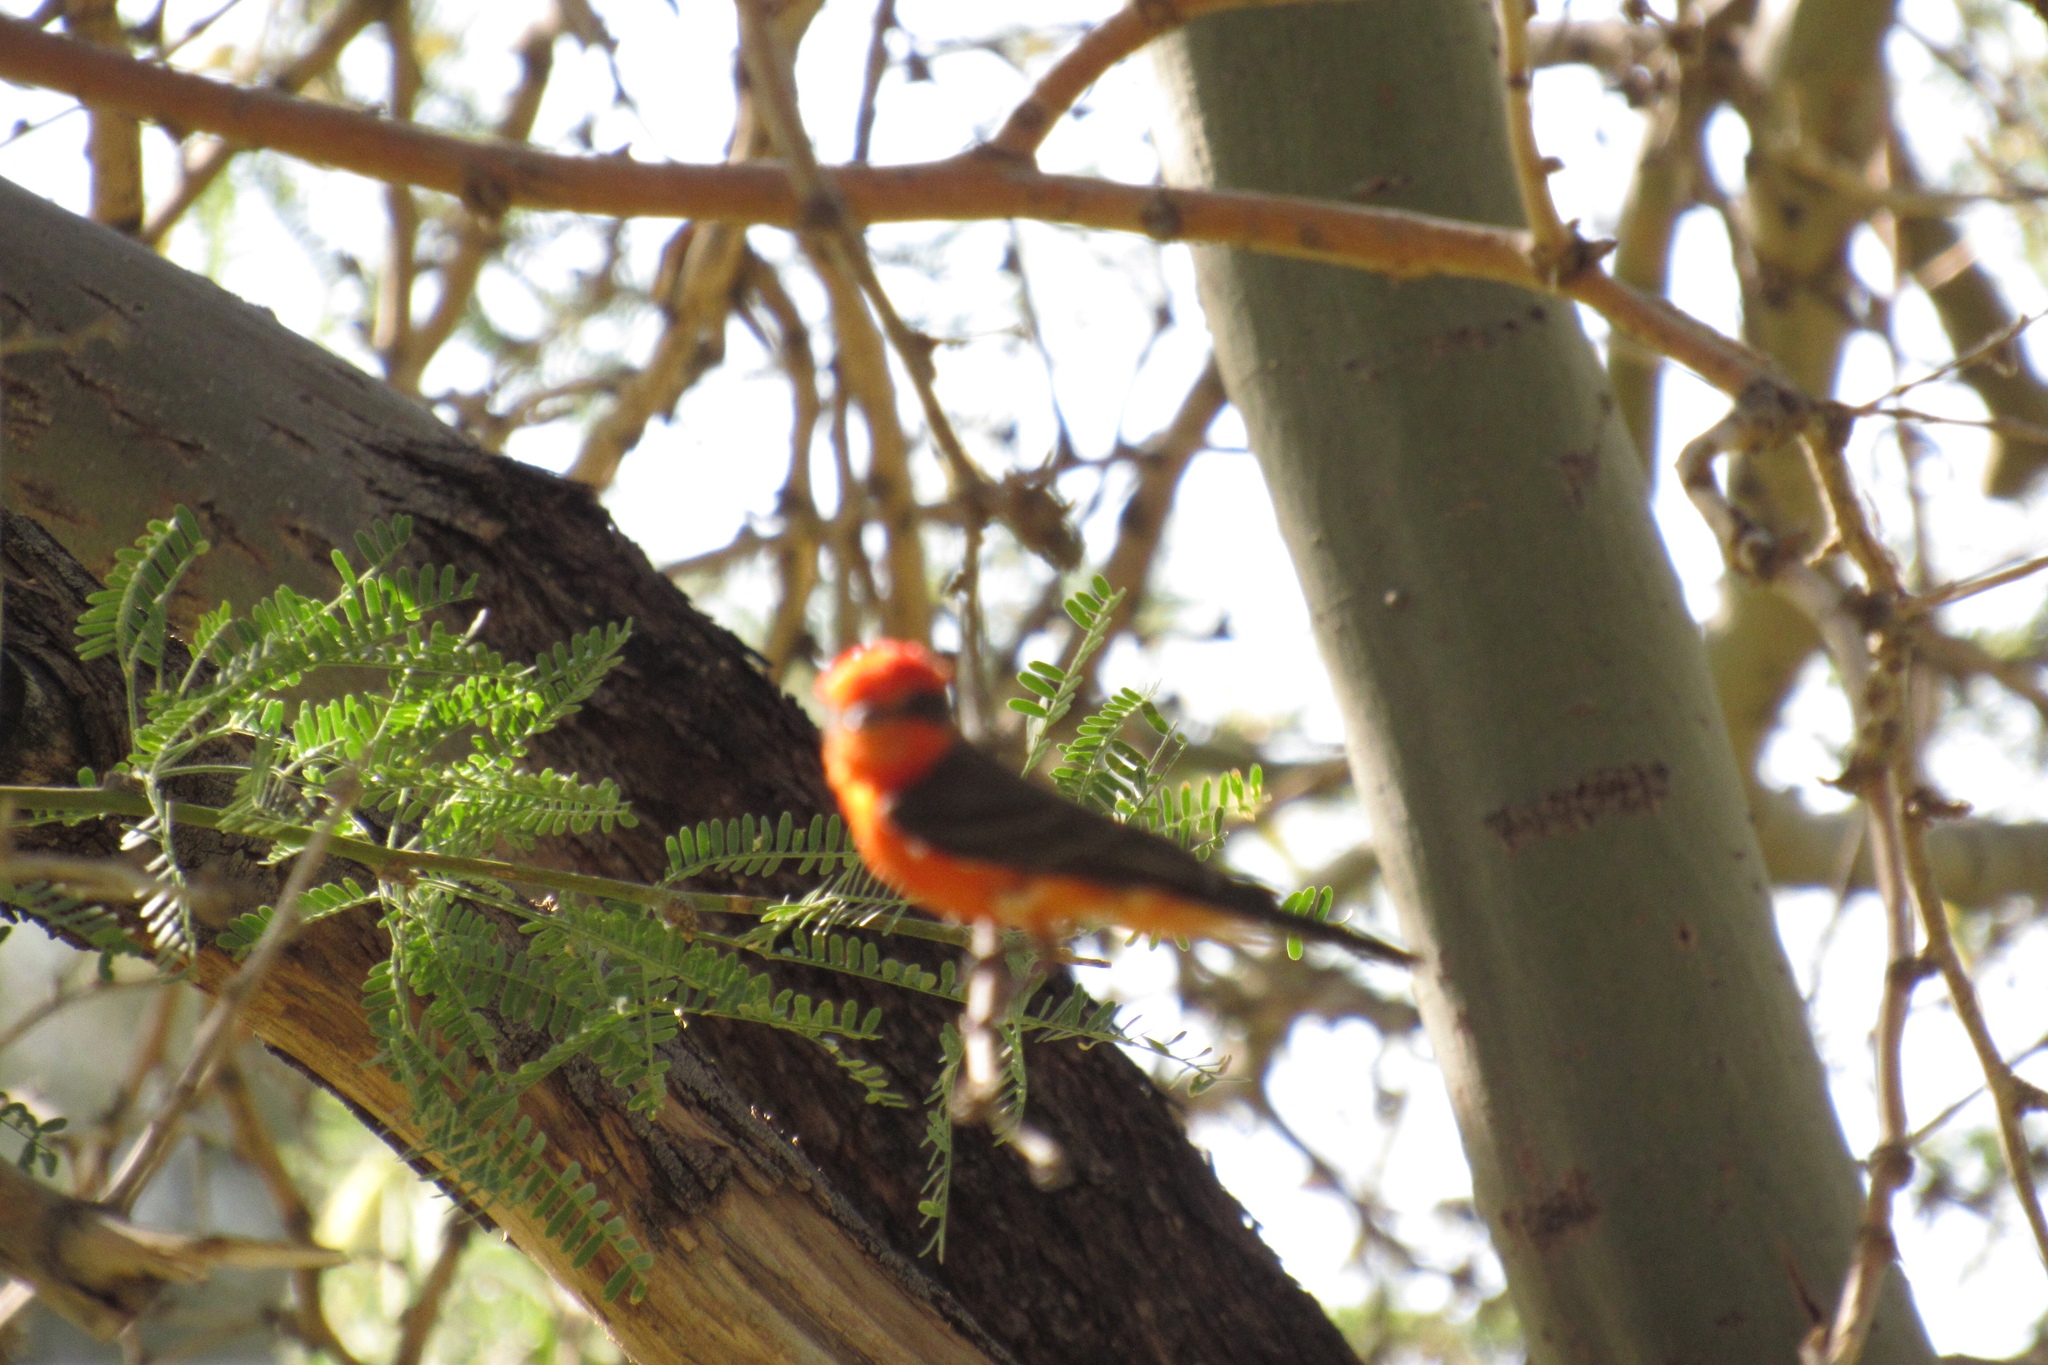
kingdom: Animalia
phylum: Chordata
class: Aves
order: Passeriformes
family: Tyrannidae
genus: Pyrocephalus
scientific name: Pyrocephalus rubinus
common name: Vermilion flycatcher
